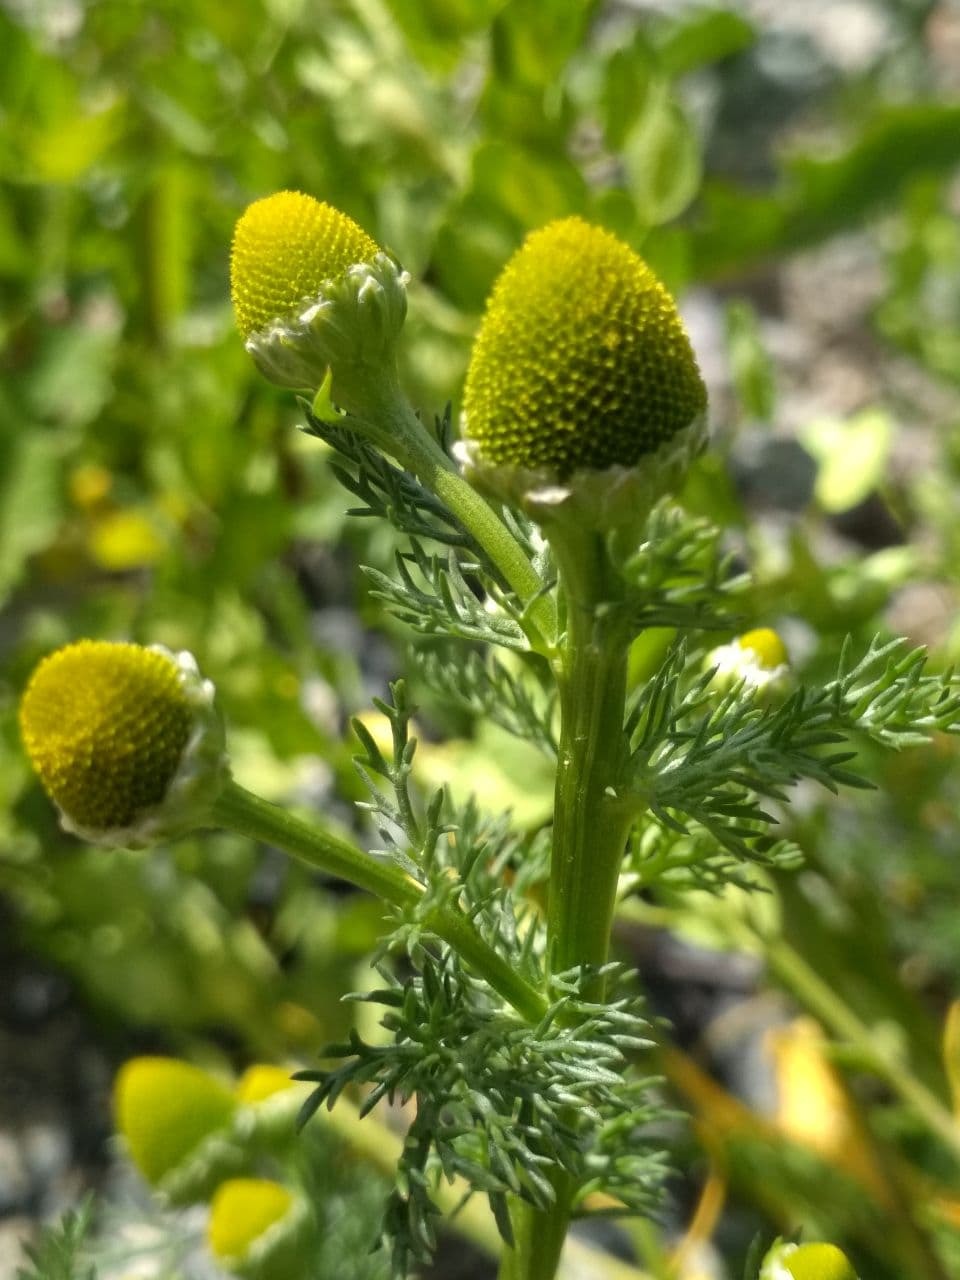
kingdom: Plantae
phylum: Tracheophyta
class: Magnoliopsida
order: Asterales
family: Asteraceae
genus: Matricaria
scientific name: Matricaria discoidea
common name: Disc mayweed
